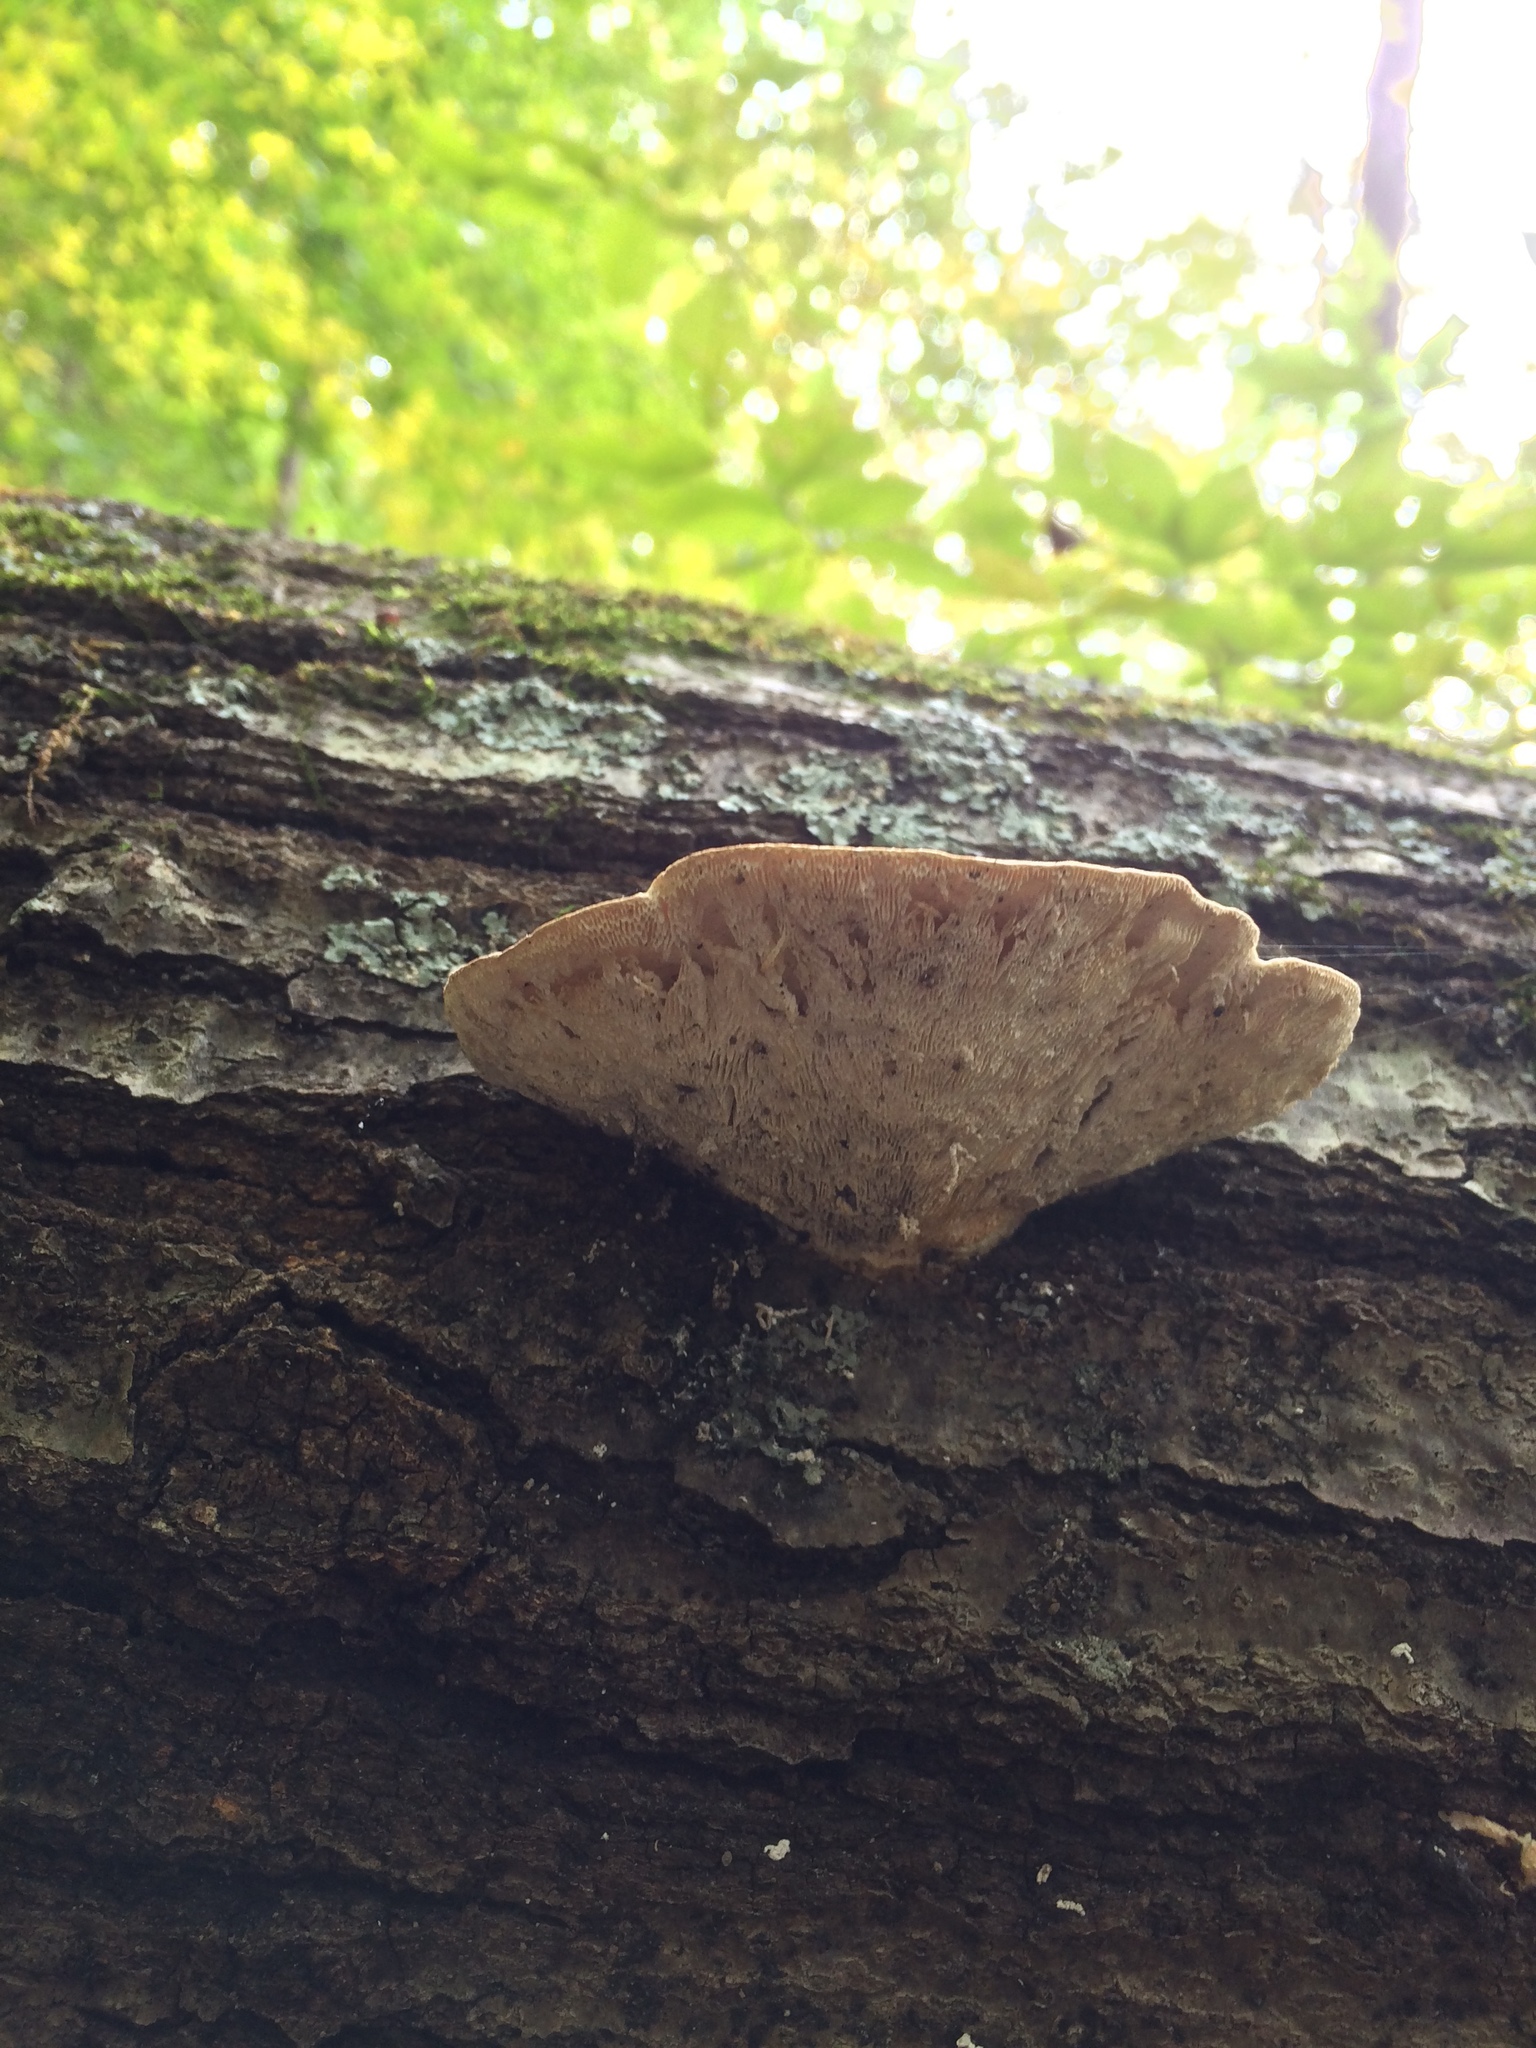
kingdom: Fungi
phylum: Basidiomycota
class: Agaricomycetes
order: Polyporales
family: Polyporaceae
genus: Trametes
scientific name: Trametes gibbosa
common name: Lumpy bracket
